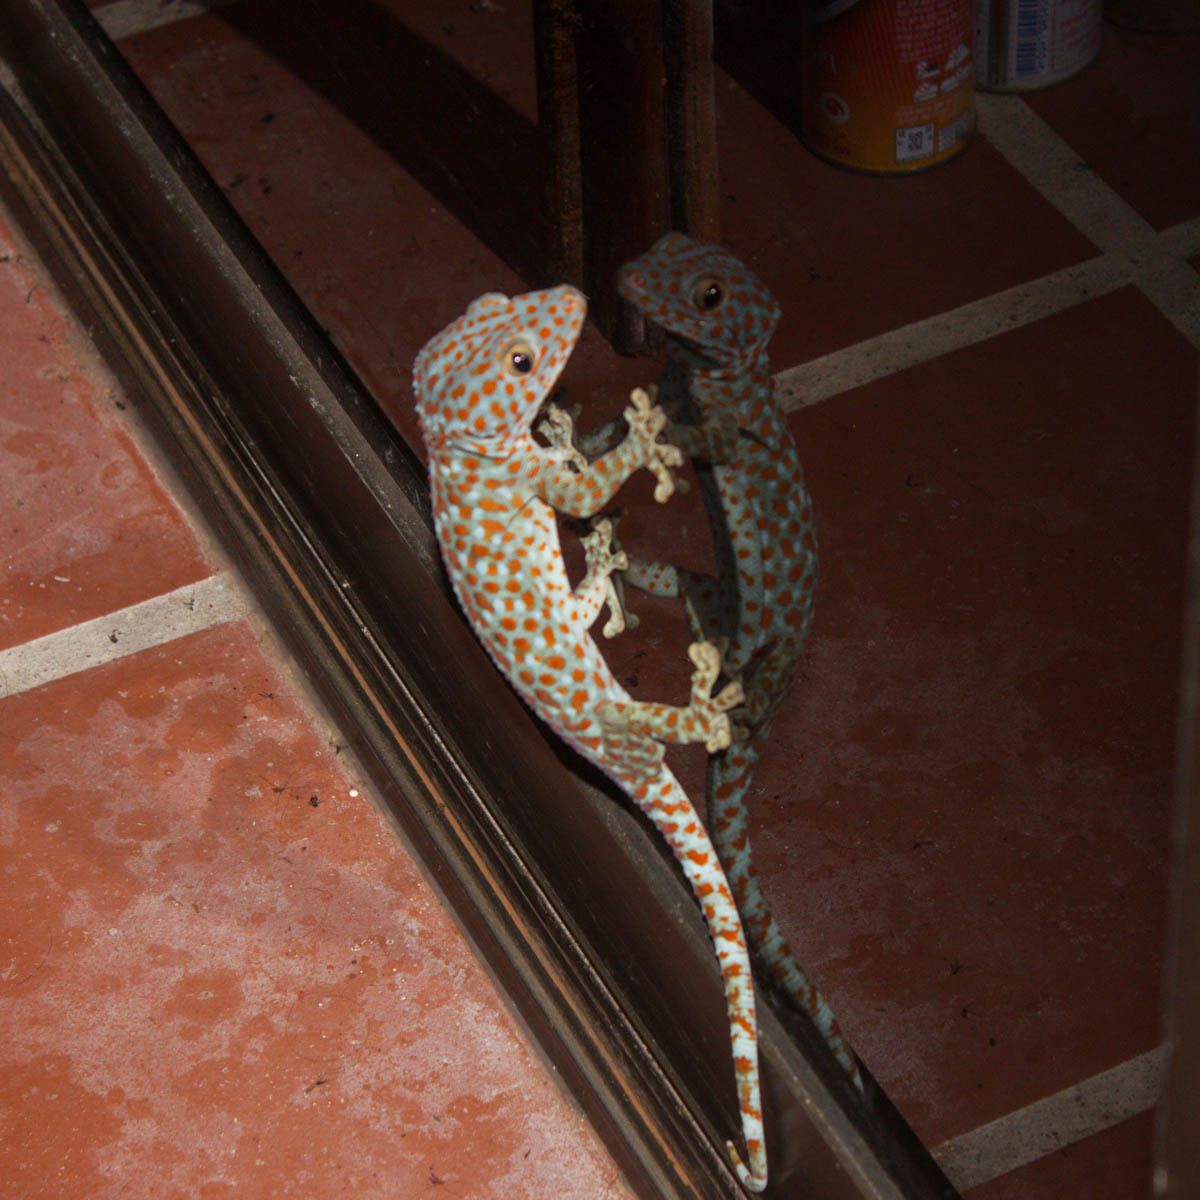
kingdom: Animalia
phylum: Chordata
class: Squamata
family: Gekkonidae
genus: Gekko
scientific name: Gekko gecko
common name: Tokay gecko
